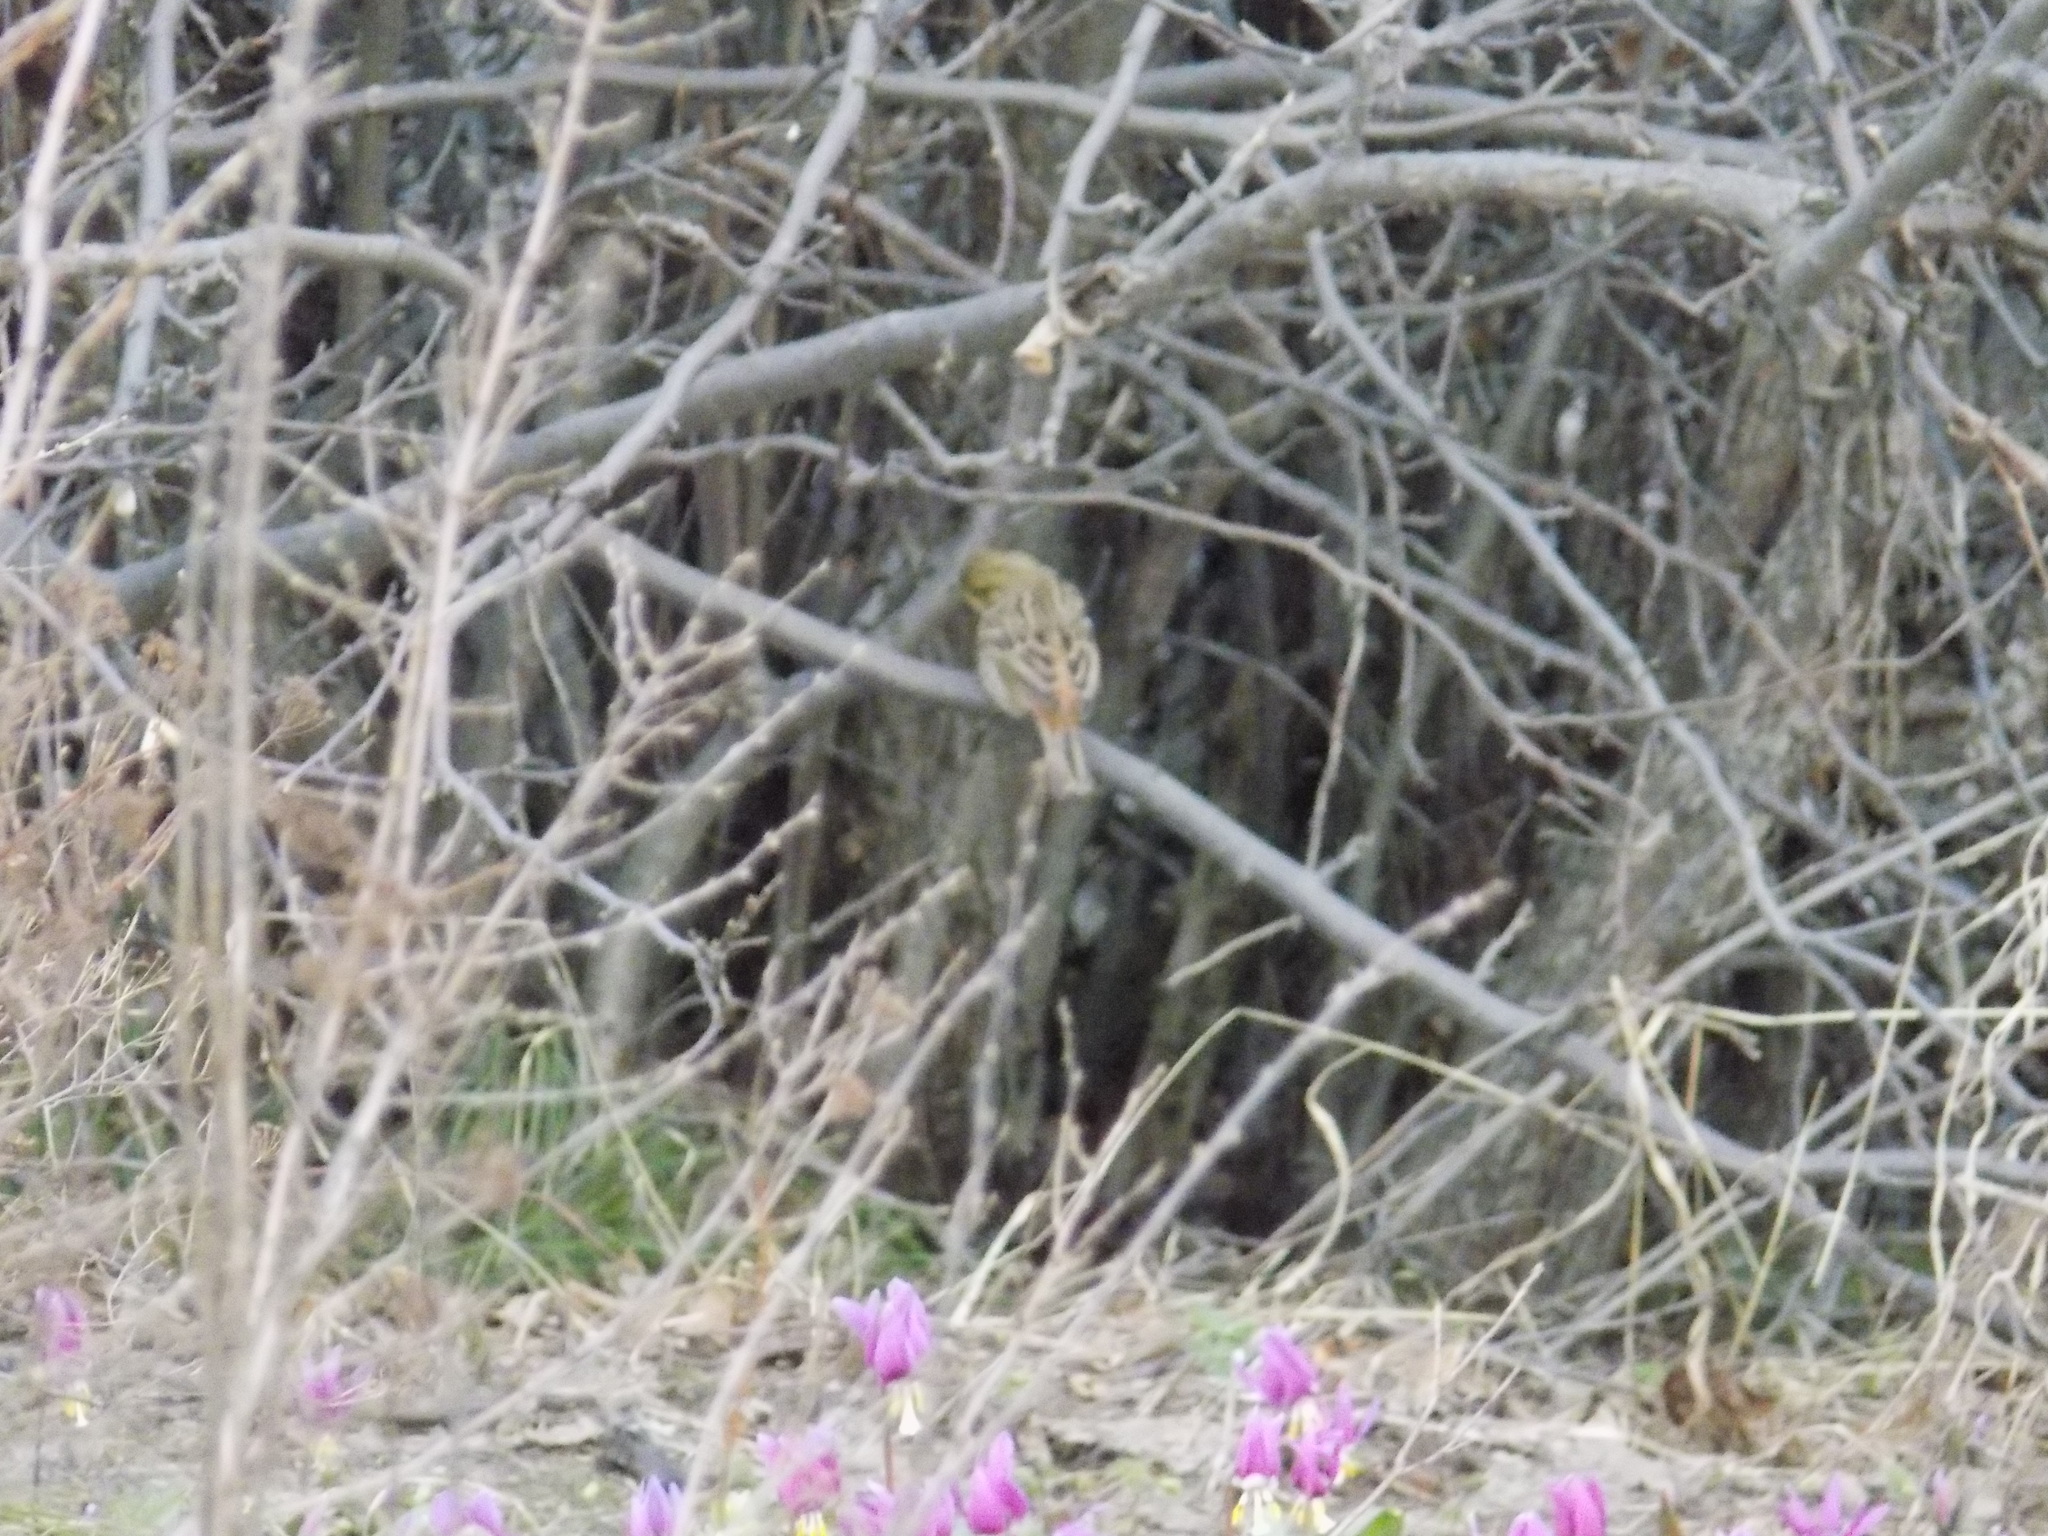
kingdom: Animalia
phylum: Chordata
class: Aves
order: Passeriformes
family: Emberizidae
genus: Emberiza
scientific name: Emberiza citrinella
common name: Yellowhammer
